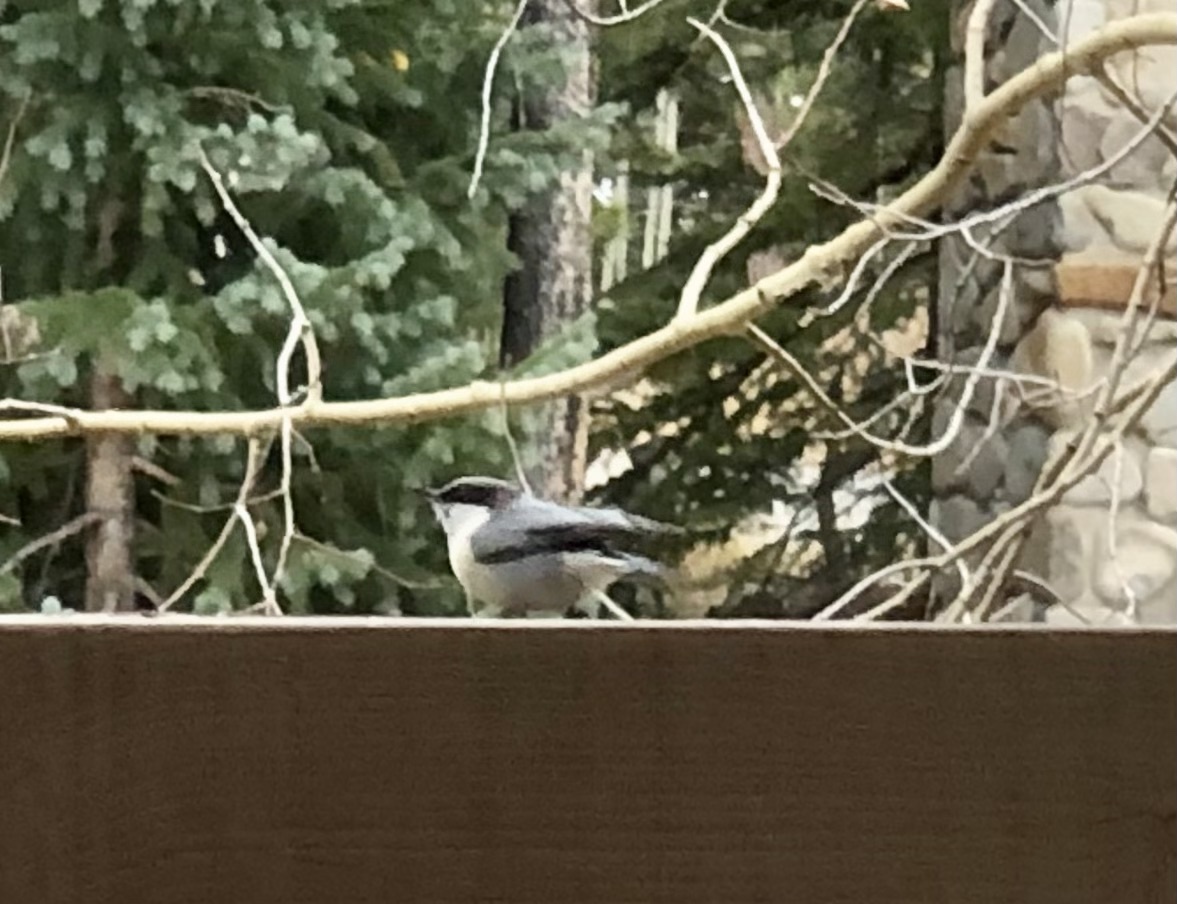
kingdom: Animalia
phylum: Chordata
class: Aves
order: Passeriformes
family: Sittidae
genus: Sitta
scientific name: Sitta pygmaea
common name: Pygmy nuthatch
